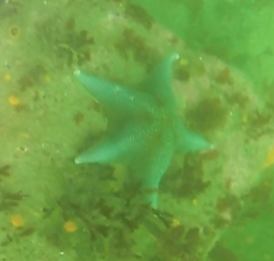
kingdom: Animalia
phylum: Echinodermata
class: Asteroidea
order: Valvatida
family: Asterinidae
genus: Patiria
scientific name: Patiria miniata
